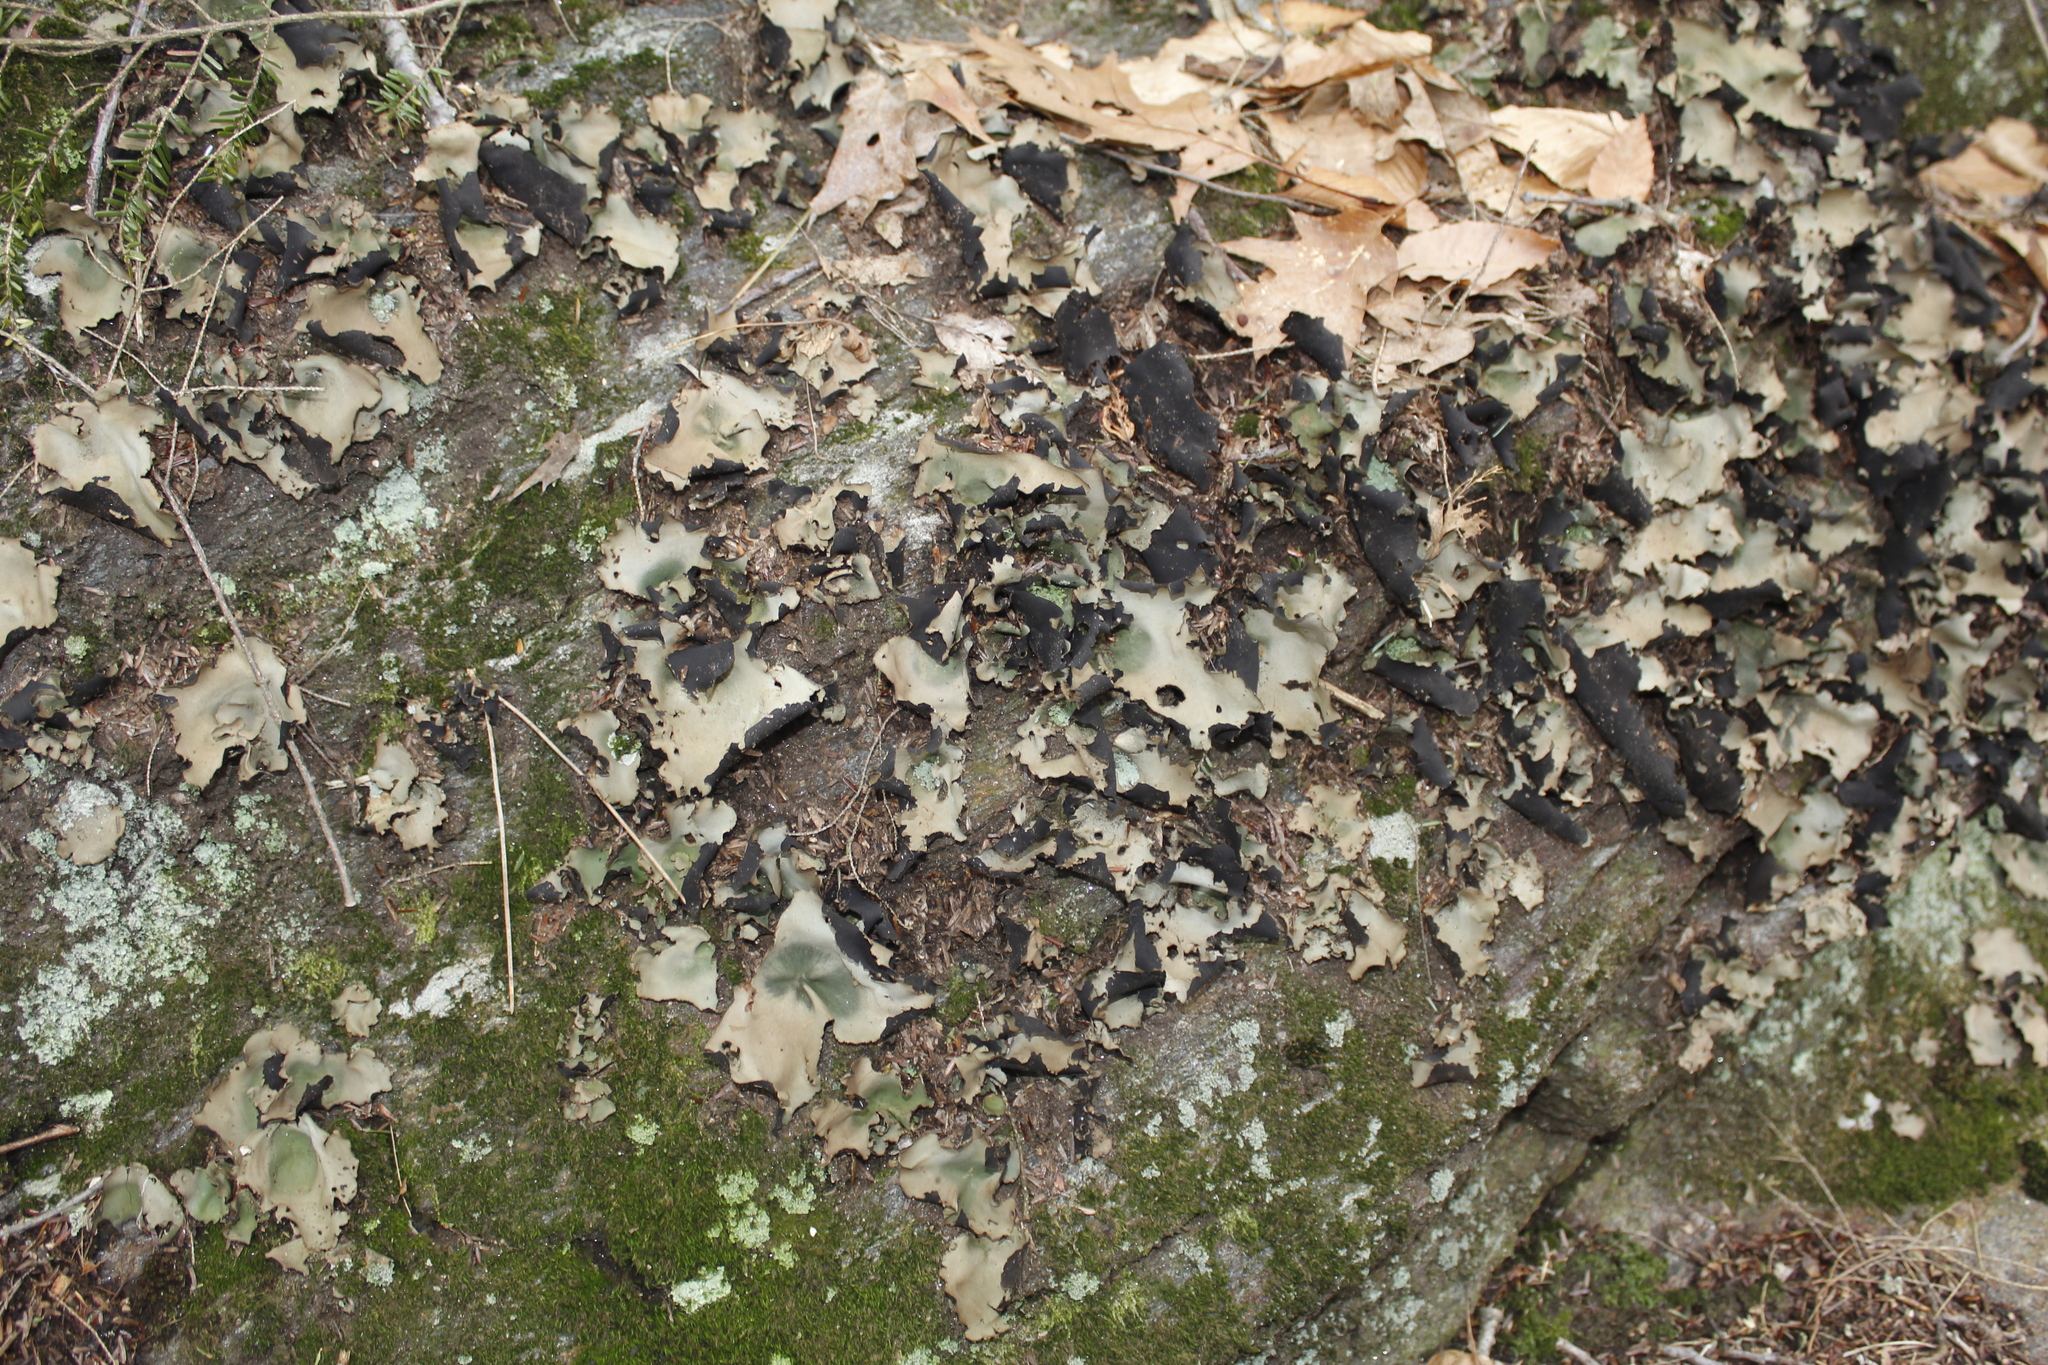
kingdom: Fungi
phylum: Ascomycota
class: Lecanoromycetes
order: Umbilicariales
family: Umbilicariaceae
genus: Umbilicaria
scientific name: Umbilicaria mammulata
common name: Smooth rock tripe
